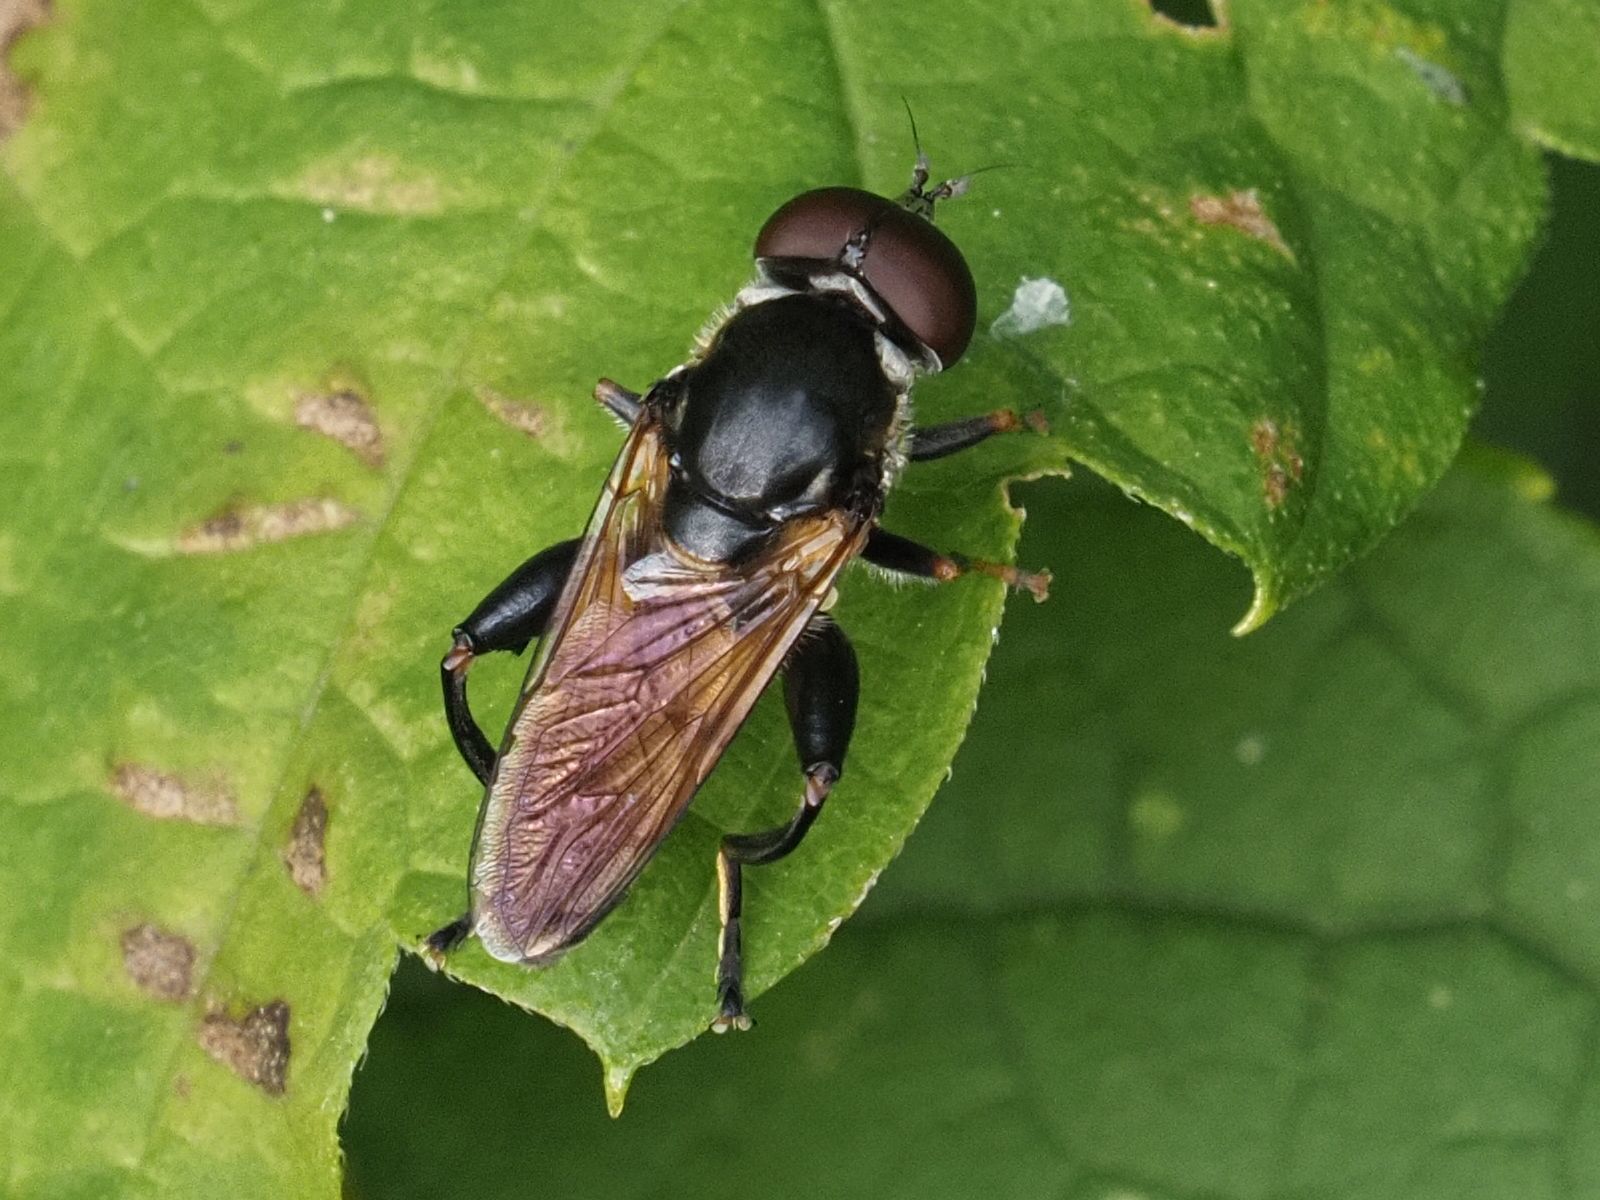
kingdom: Animalia
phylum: Arthropoda
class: Insecta
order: Diptera
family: Syrphidae
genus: Tropidia
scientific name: Tropidia scita
